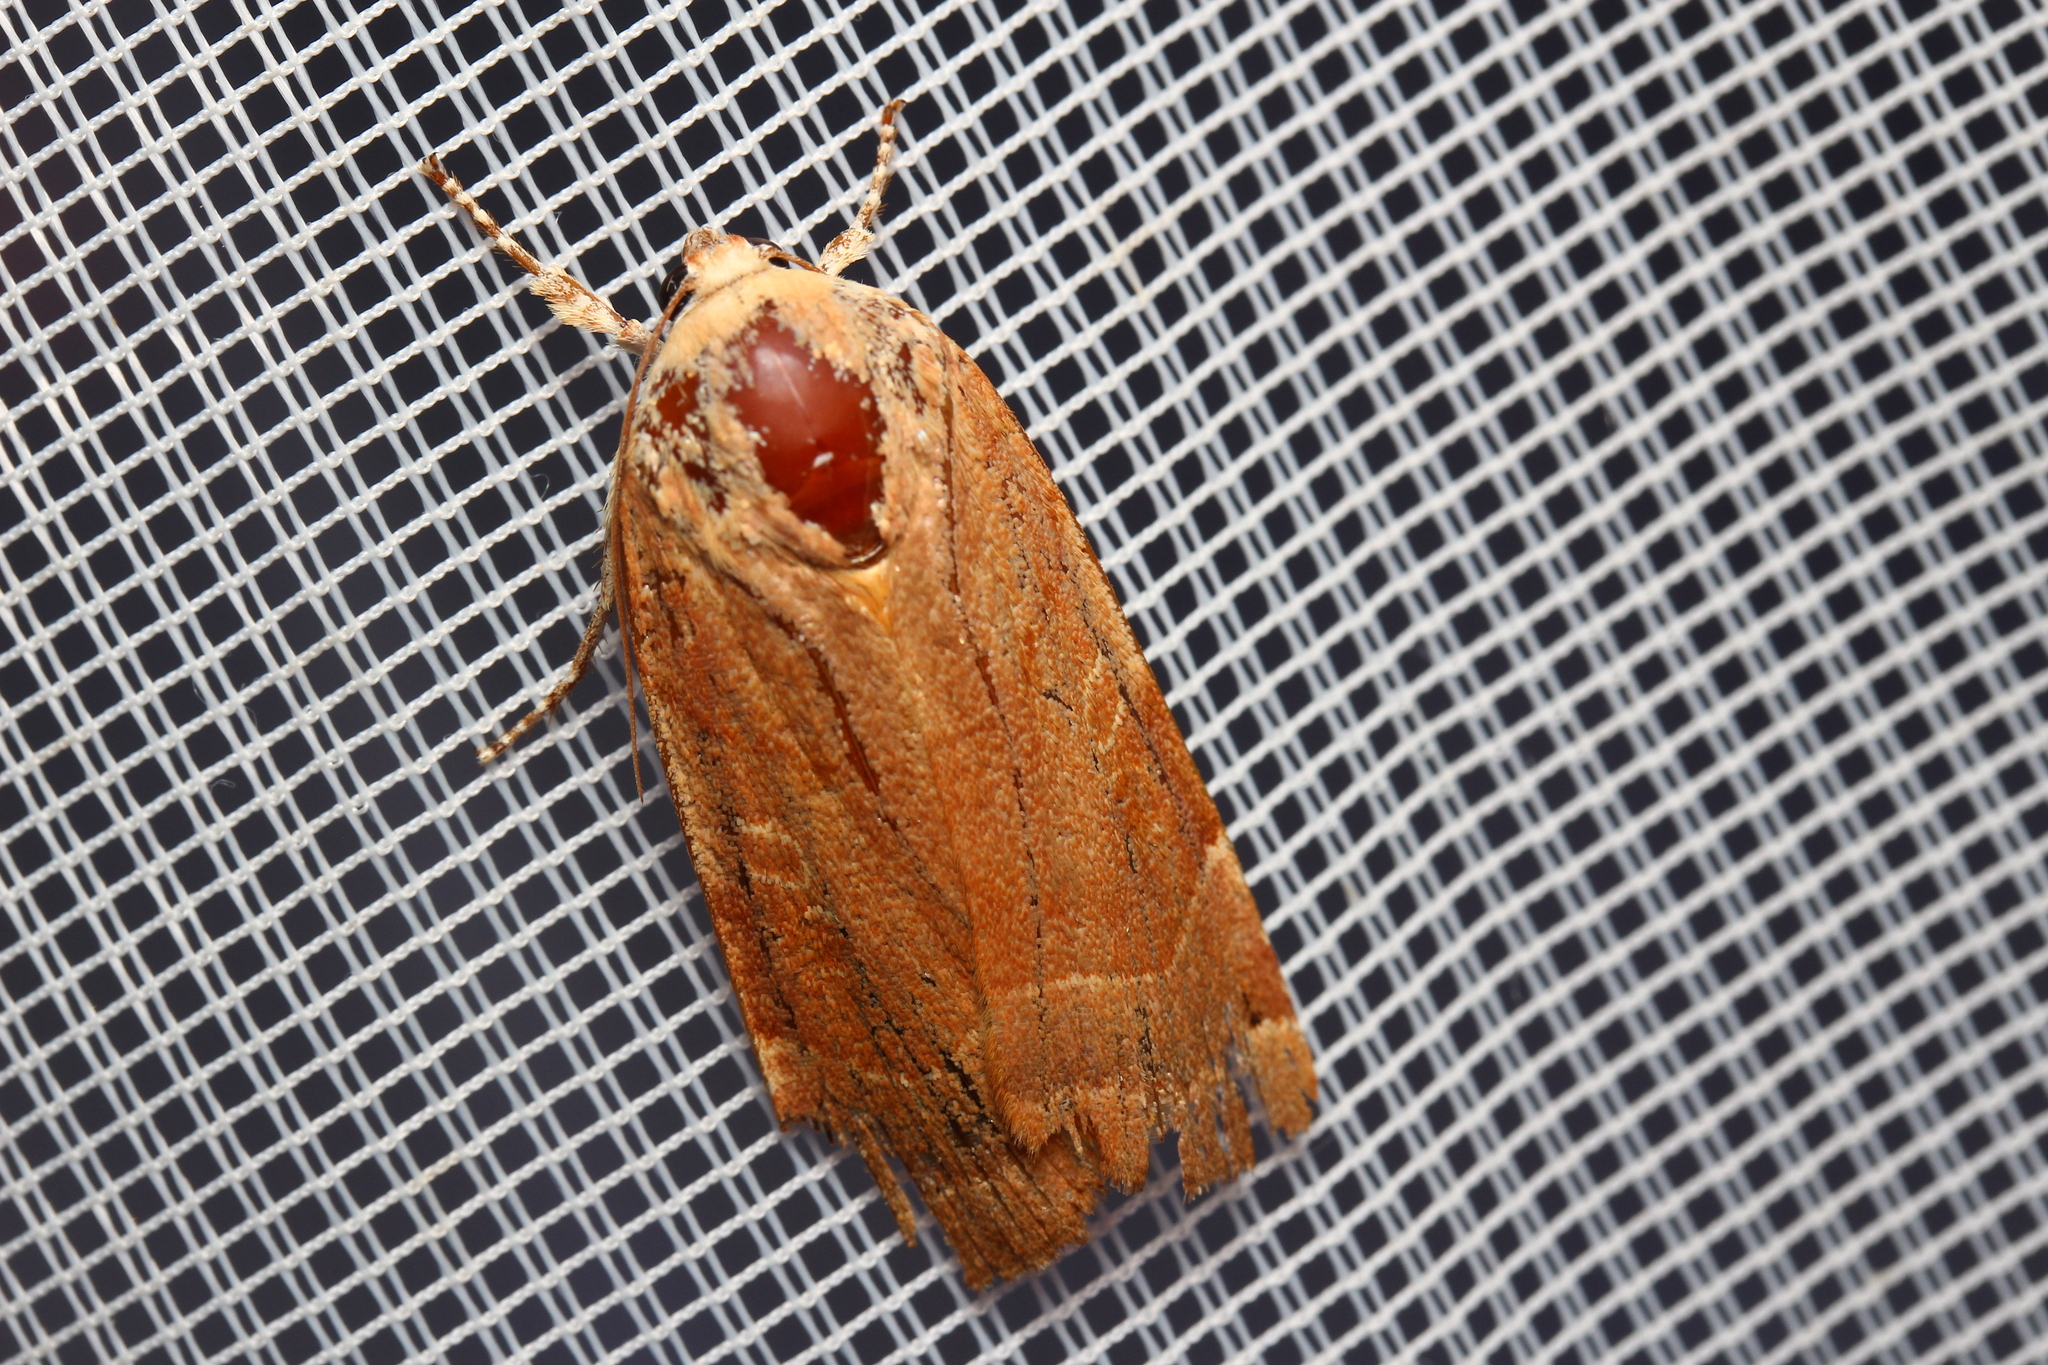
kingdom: Animalia
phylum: Arthropoda
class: Insecta
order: Lepidoptera
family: Noctuidae
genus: Noctua
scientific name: Noctua fimbriata
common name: Broad-bordered yellow underwing
